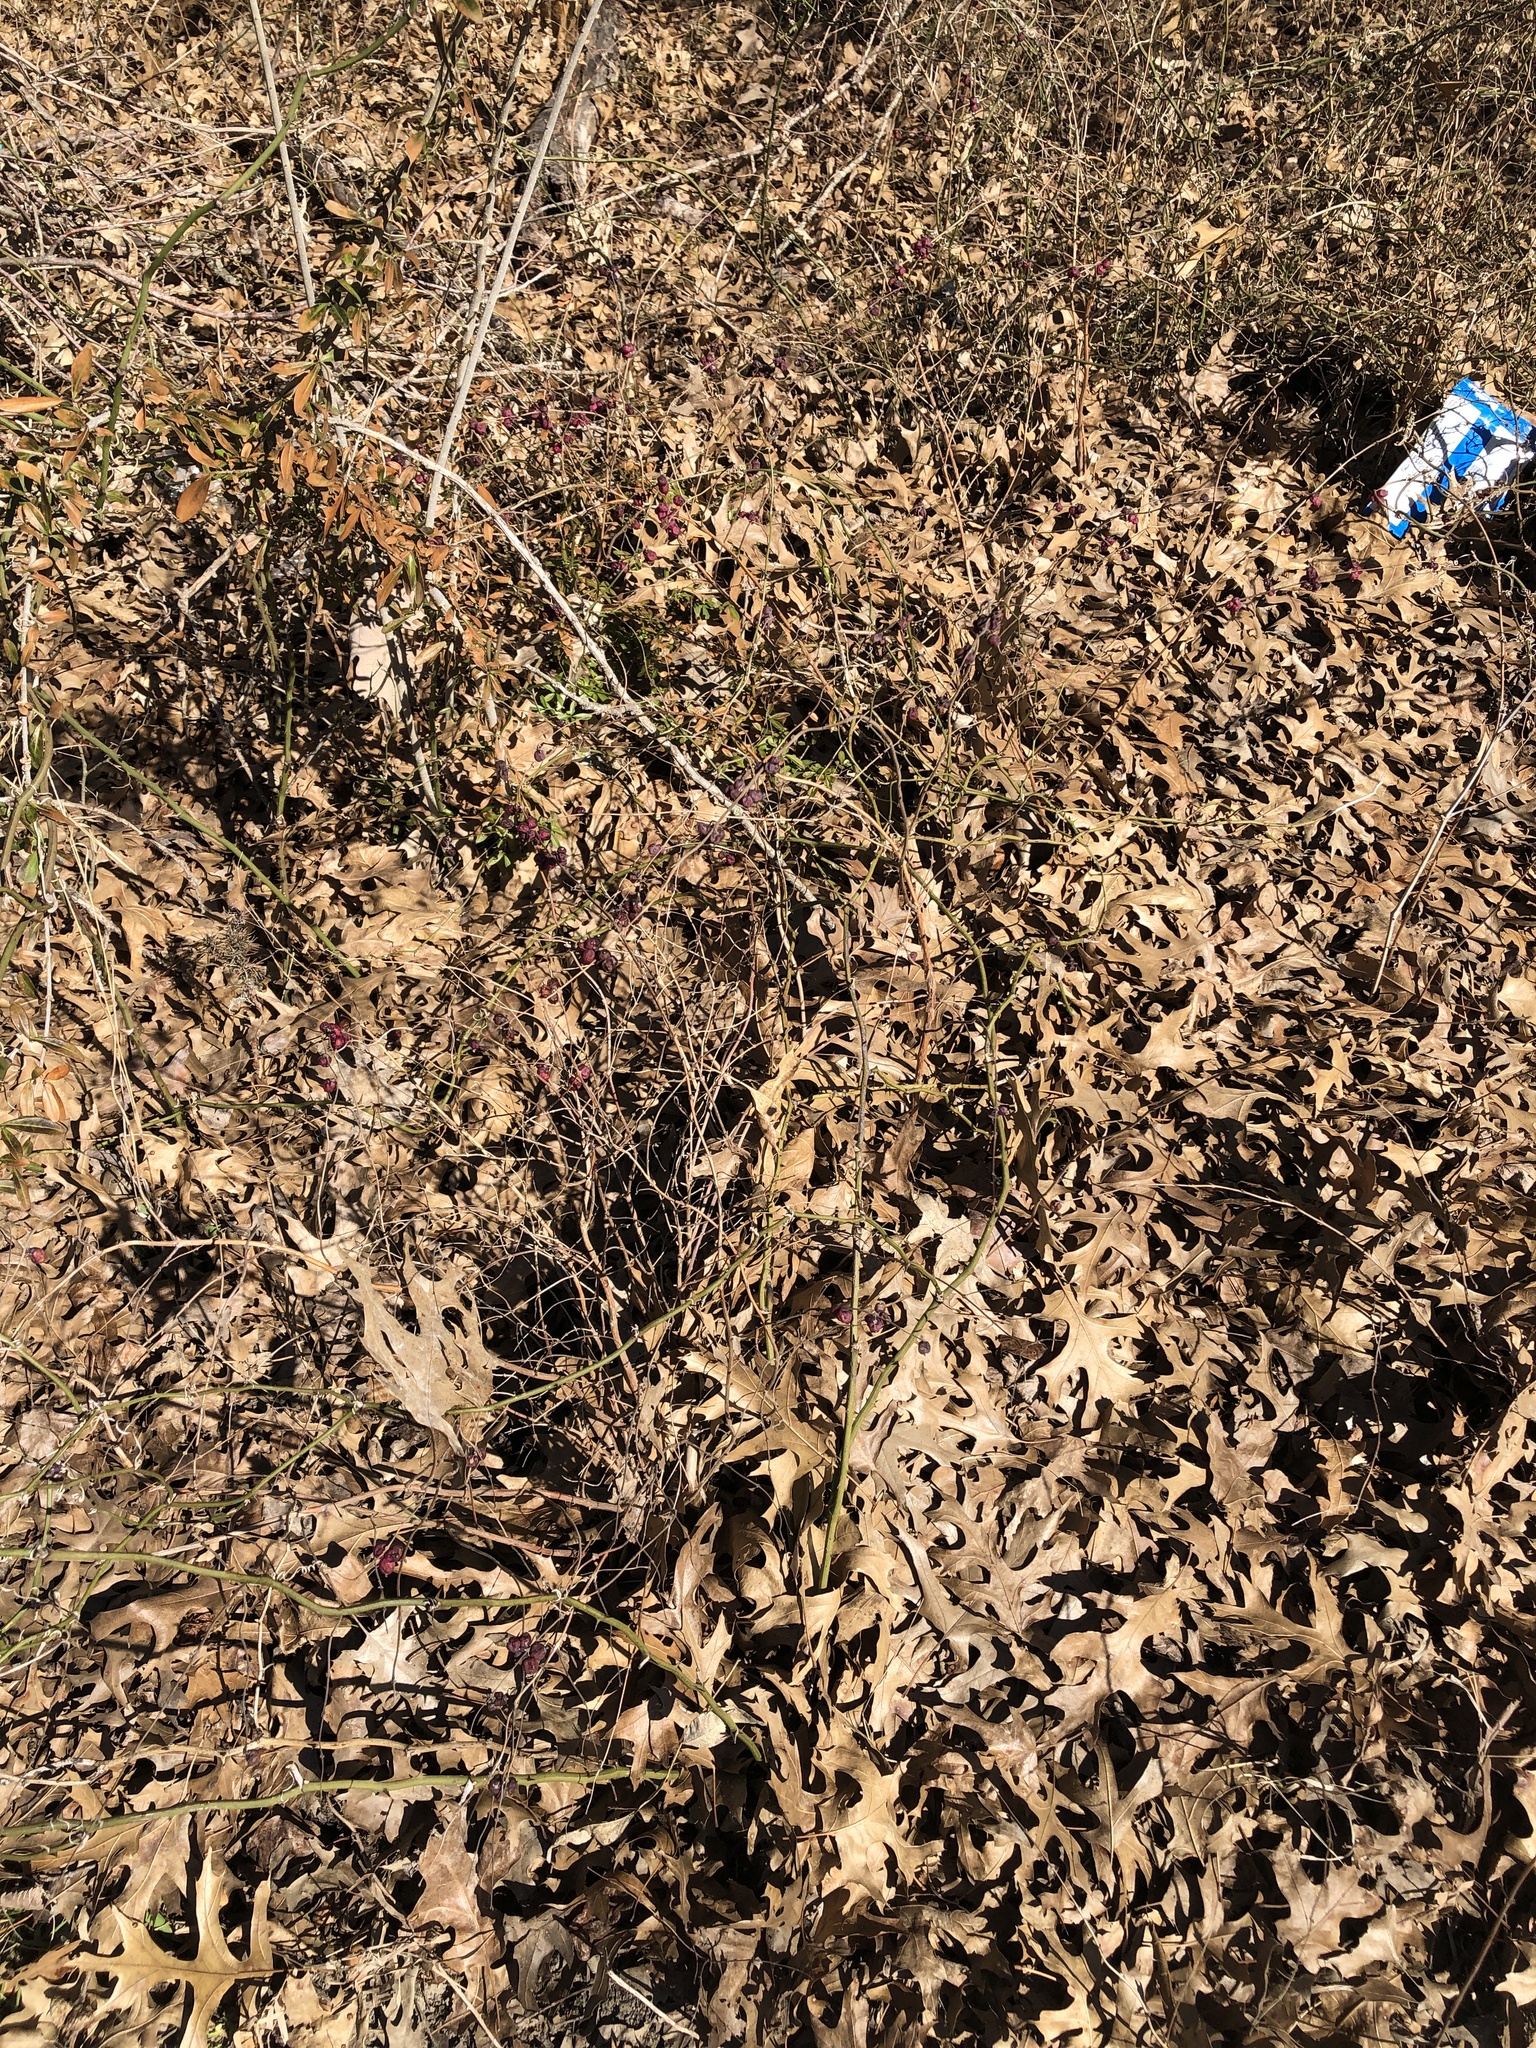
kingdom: Plantae
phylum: Tracheophyta
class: Magnoliopsida
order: Dipsacales
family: Caprifoliaceae
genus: Symphoricarpos
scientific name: Symphoricarpos orbiculatus
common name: Coralberry
